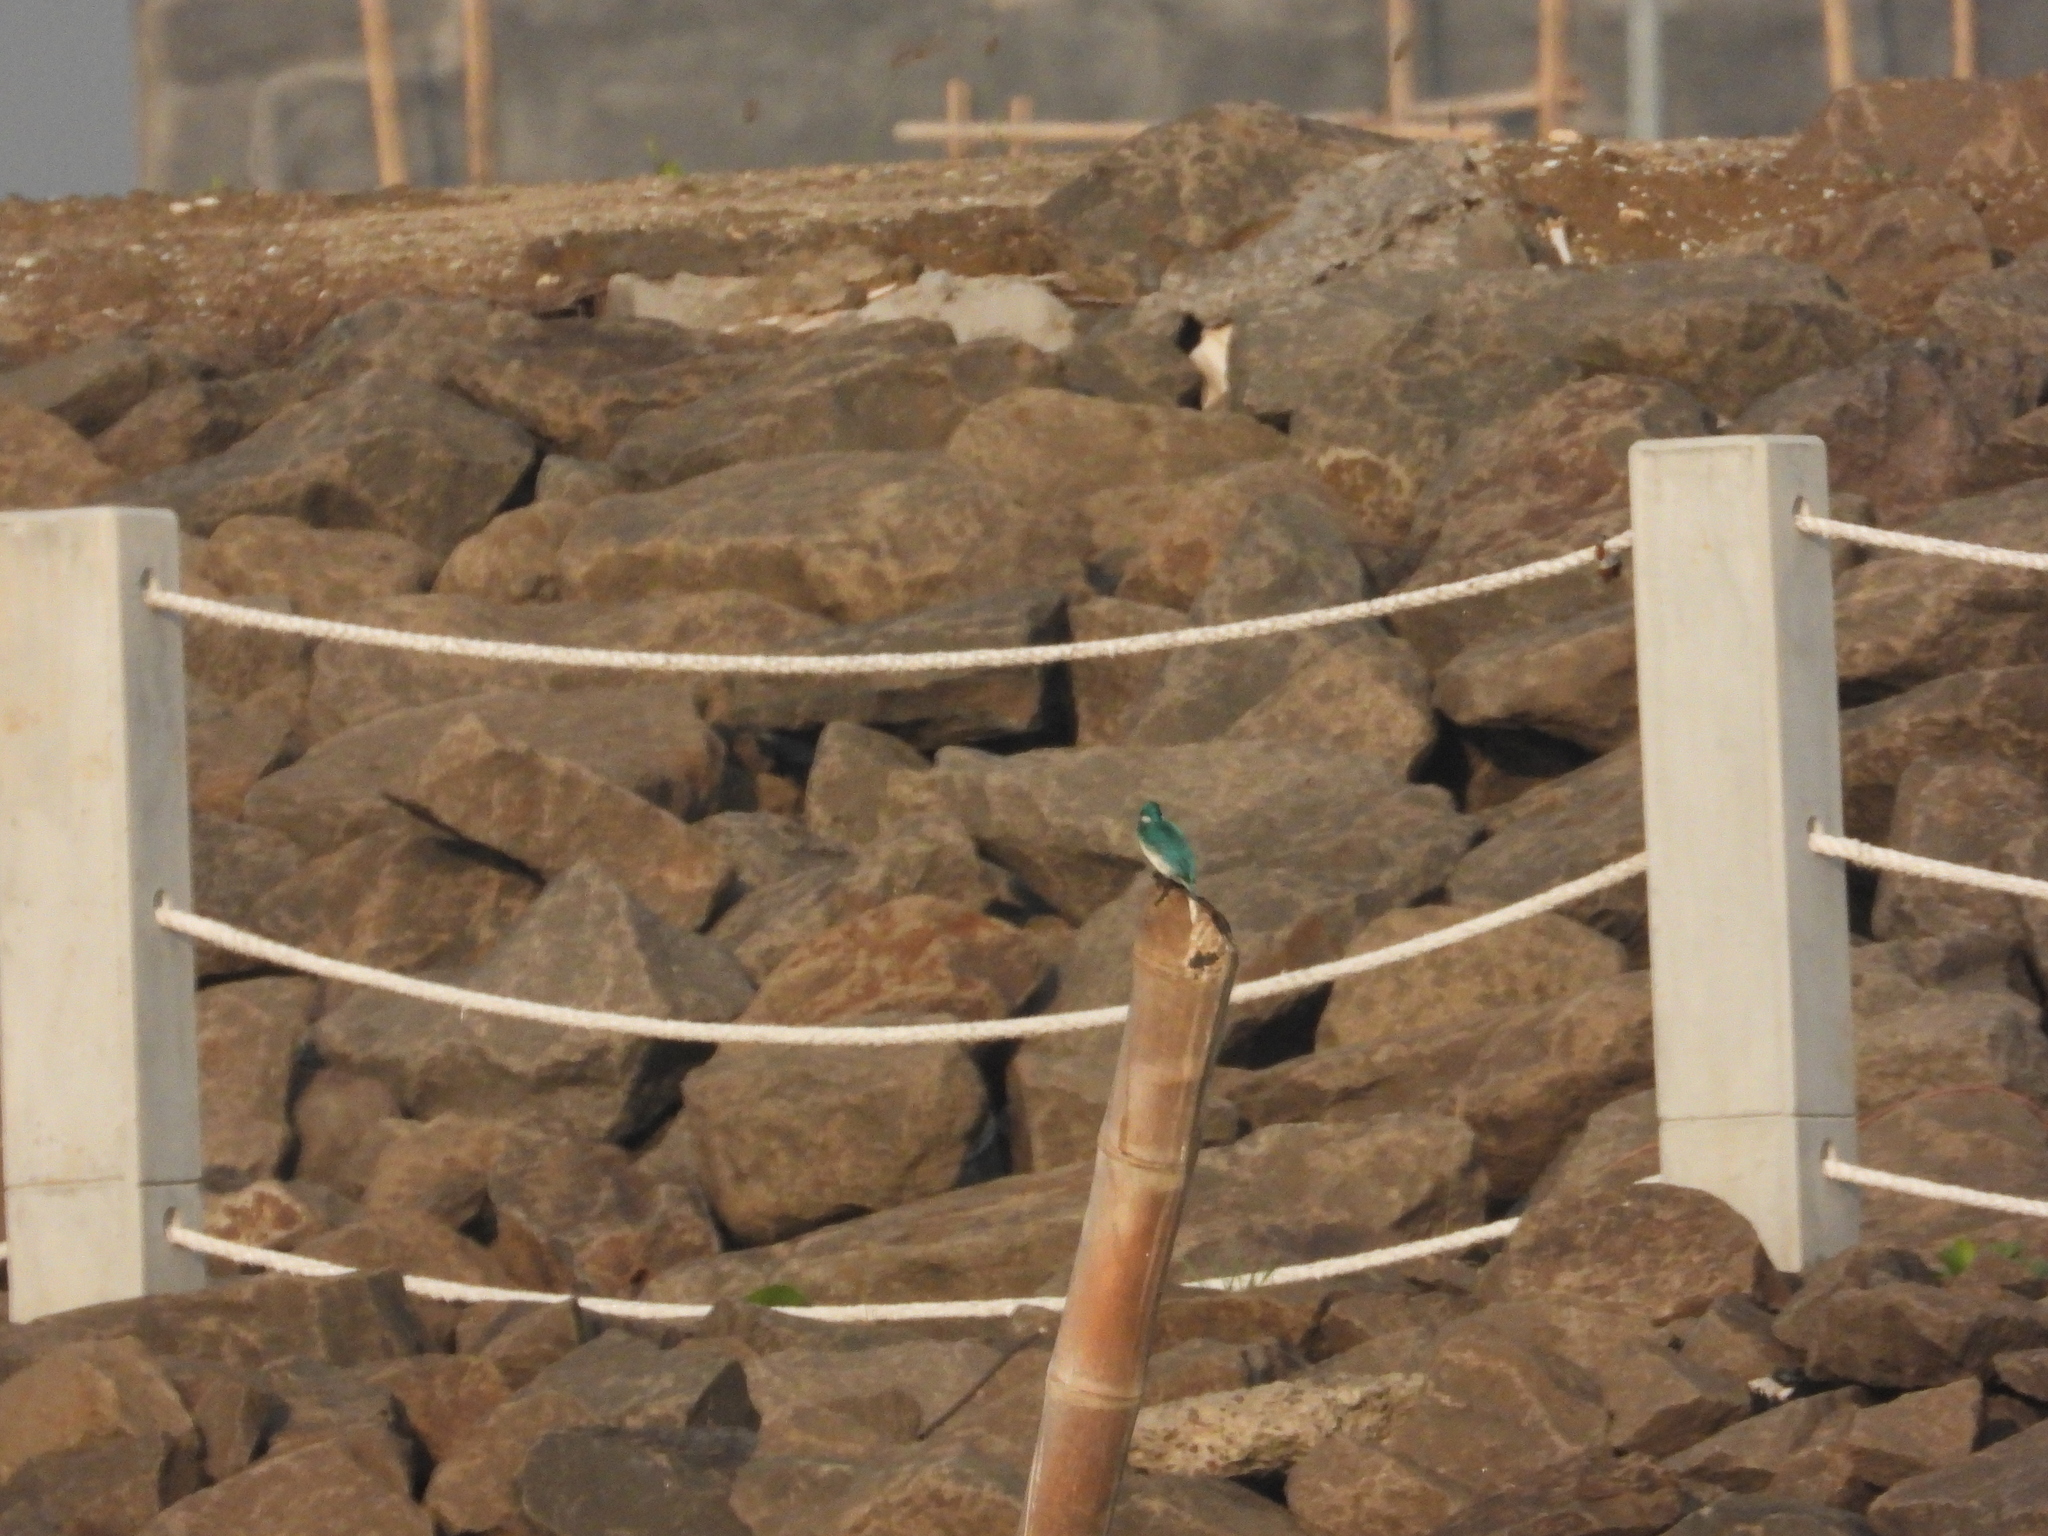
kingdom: Animalia
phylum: Chordata
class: Aves
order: Coraciiformes
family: Alcedinidae
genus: Alcedo
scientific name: Alcedo coerulescens
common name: Cerulean kingfisher
